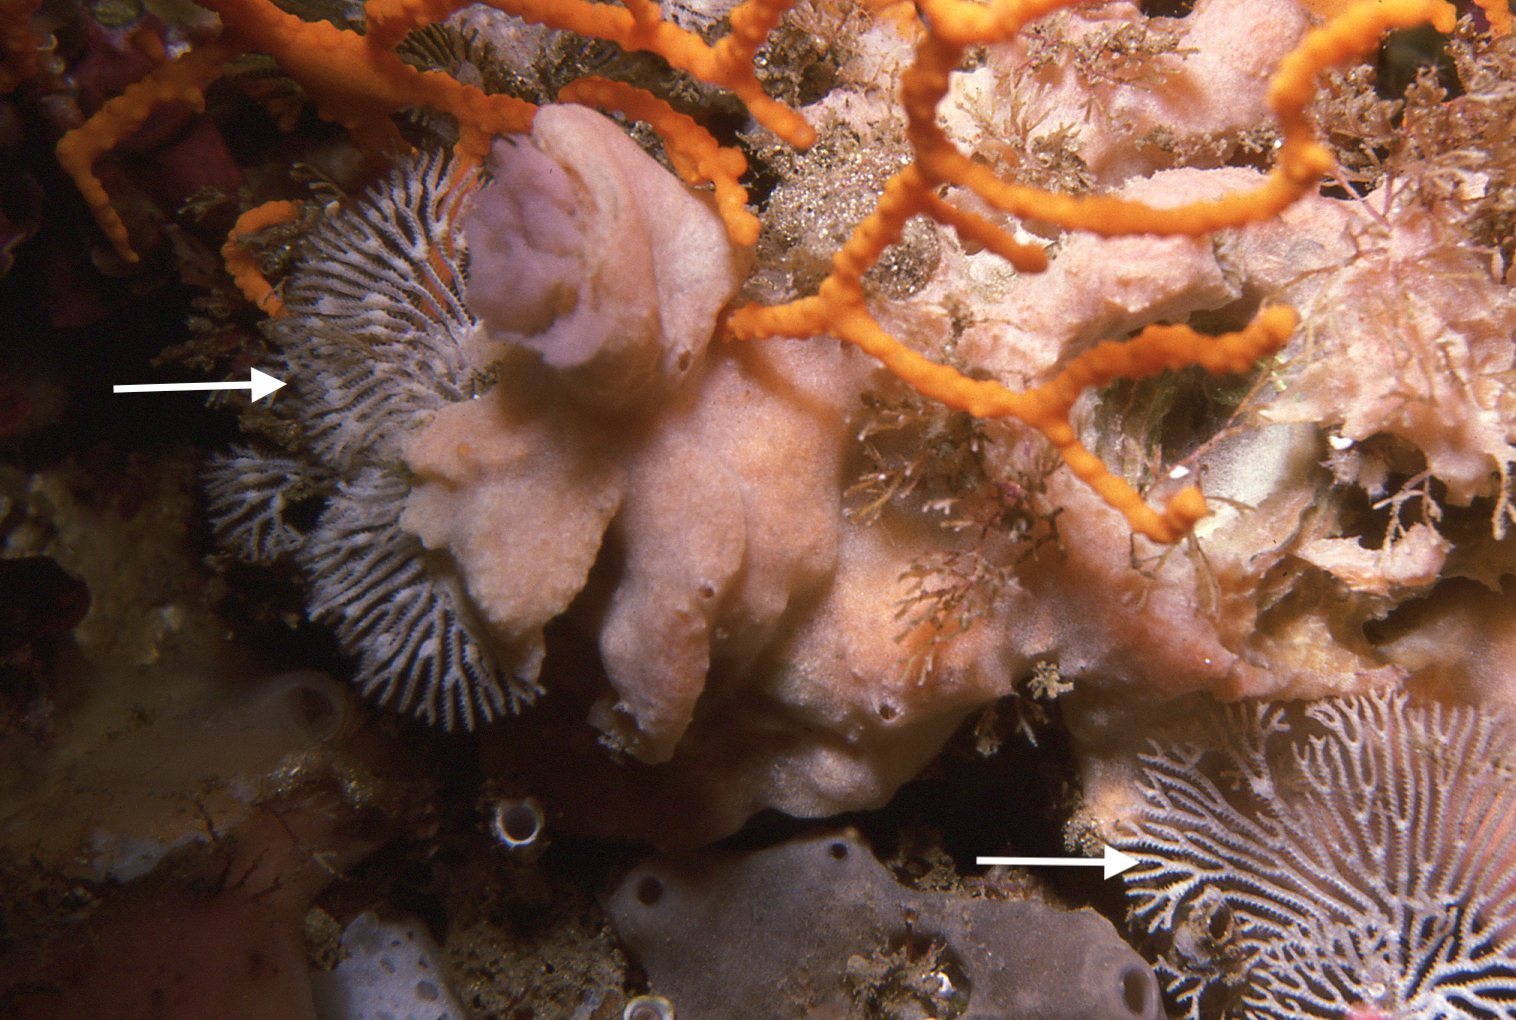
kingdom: Animalia
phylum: Bryozoa
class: Stenolaemata
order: Cyclostomatida
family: Crisinidae
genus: Mesonea
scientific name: Mesonea radians
